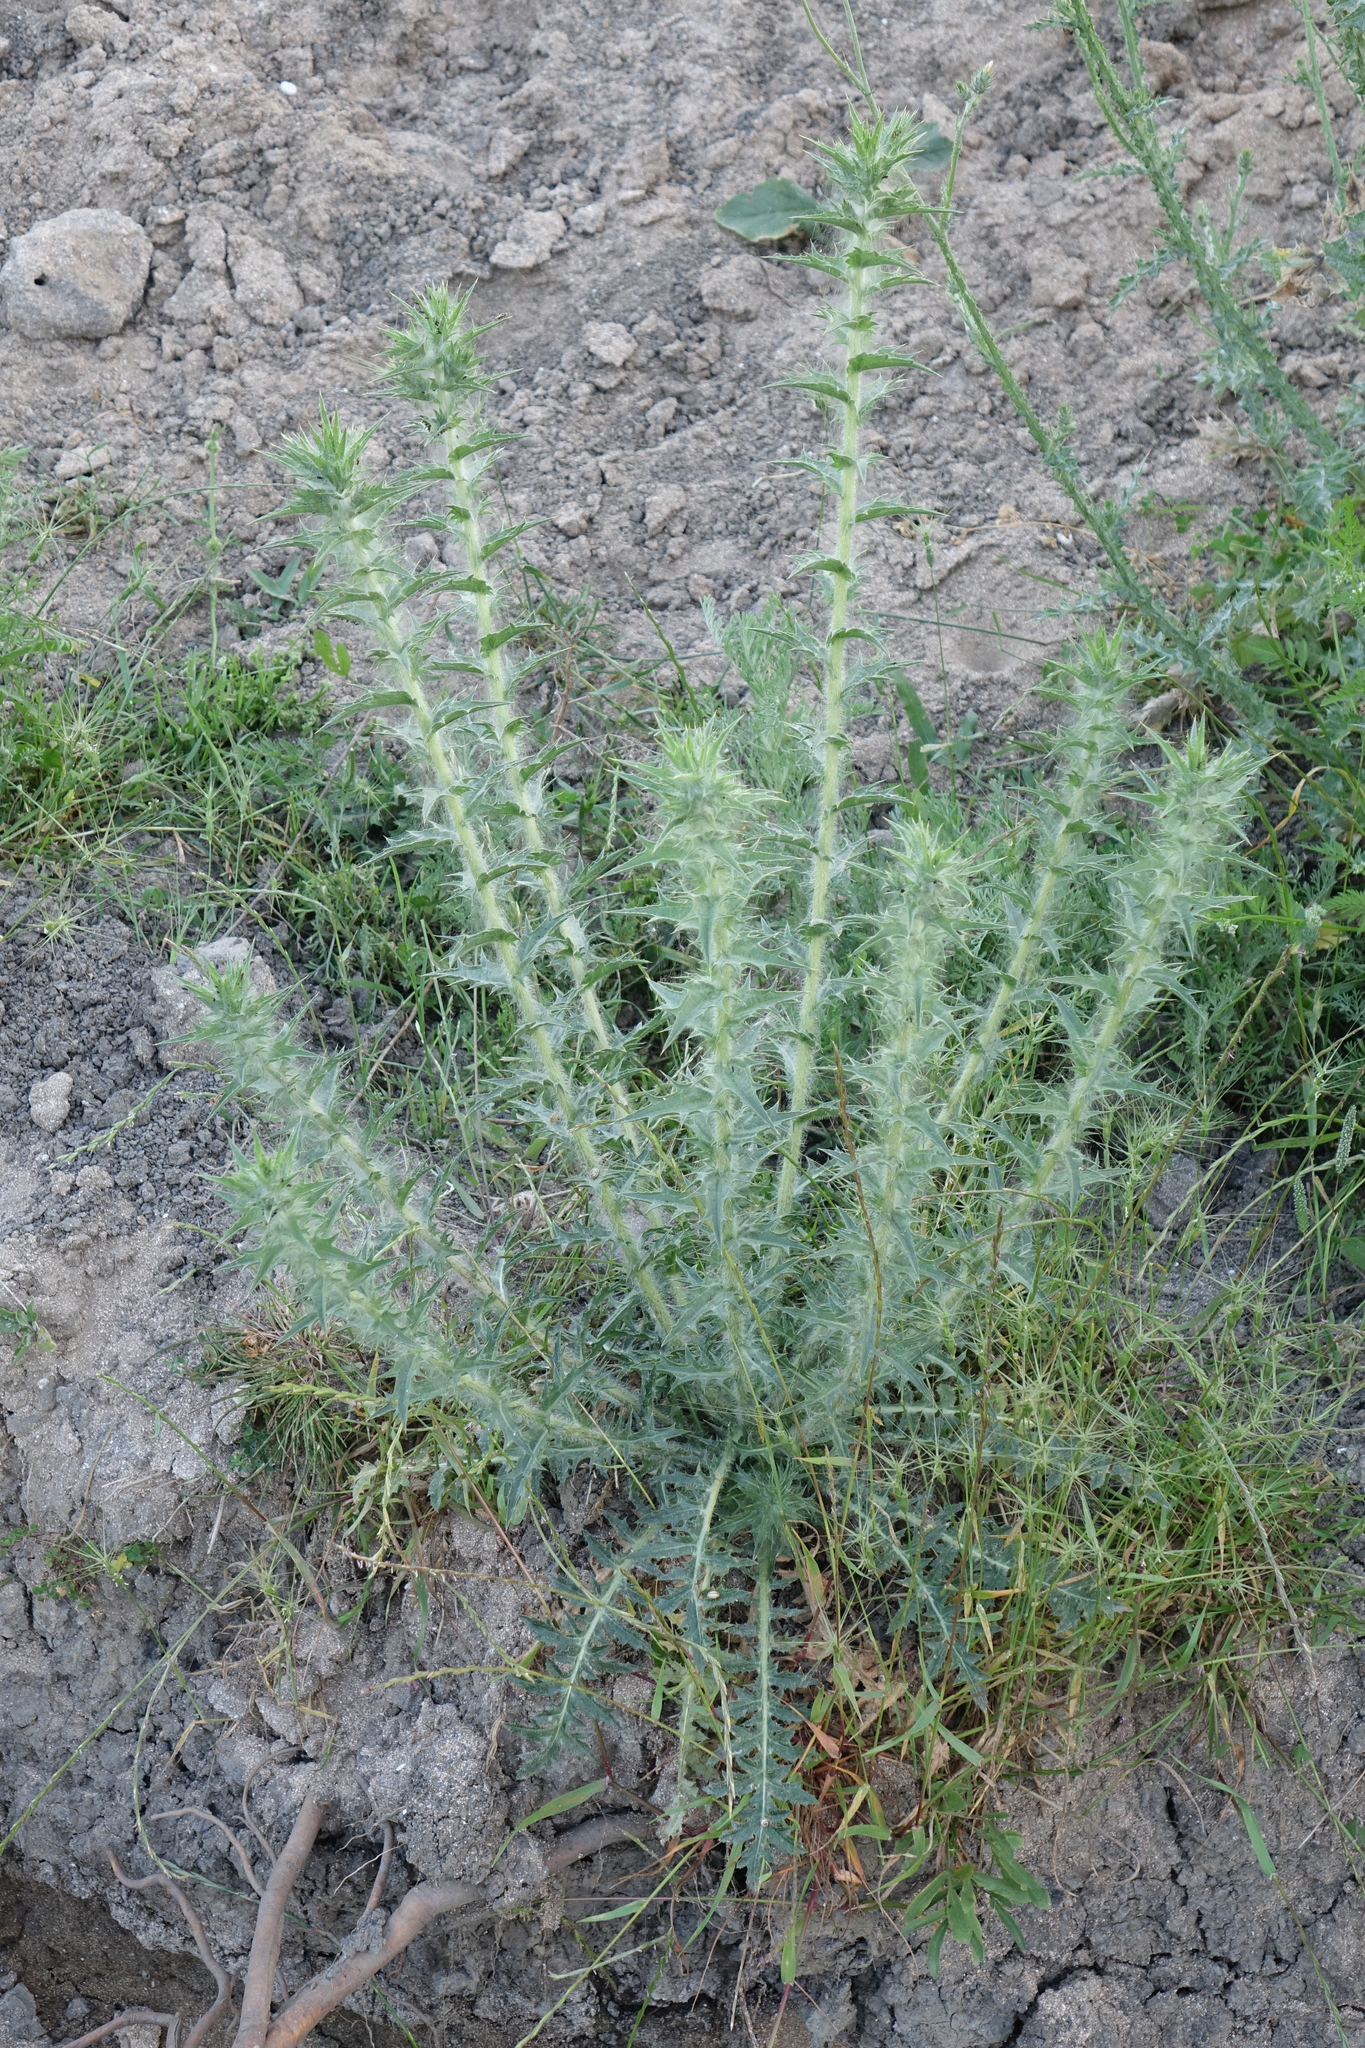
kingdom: Plantae
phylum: Tracheophyta
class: Magnoliopsida
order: Asterales
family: Asteraceae
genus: Carthamus
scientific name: Carthamus lanatus
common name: Downy safflower
